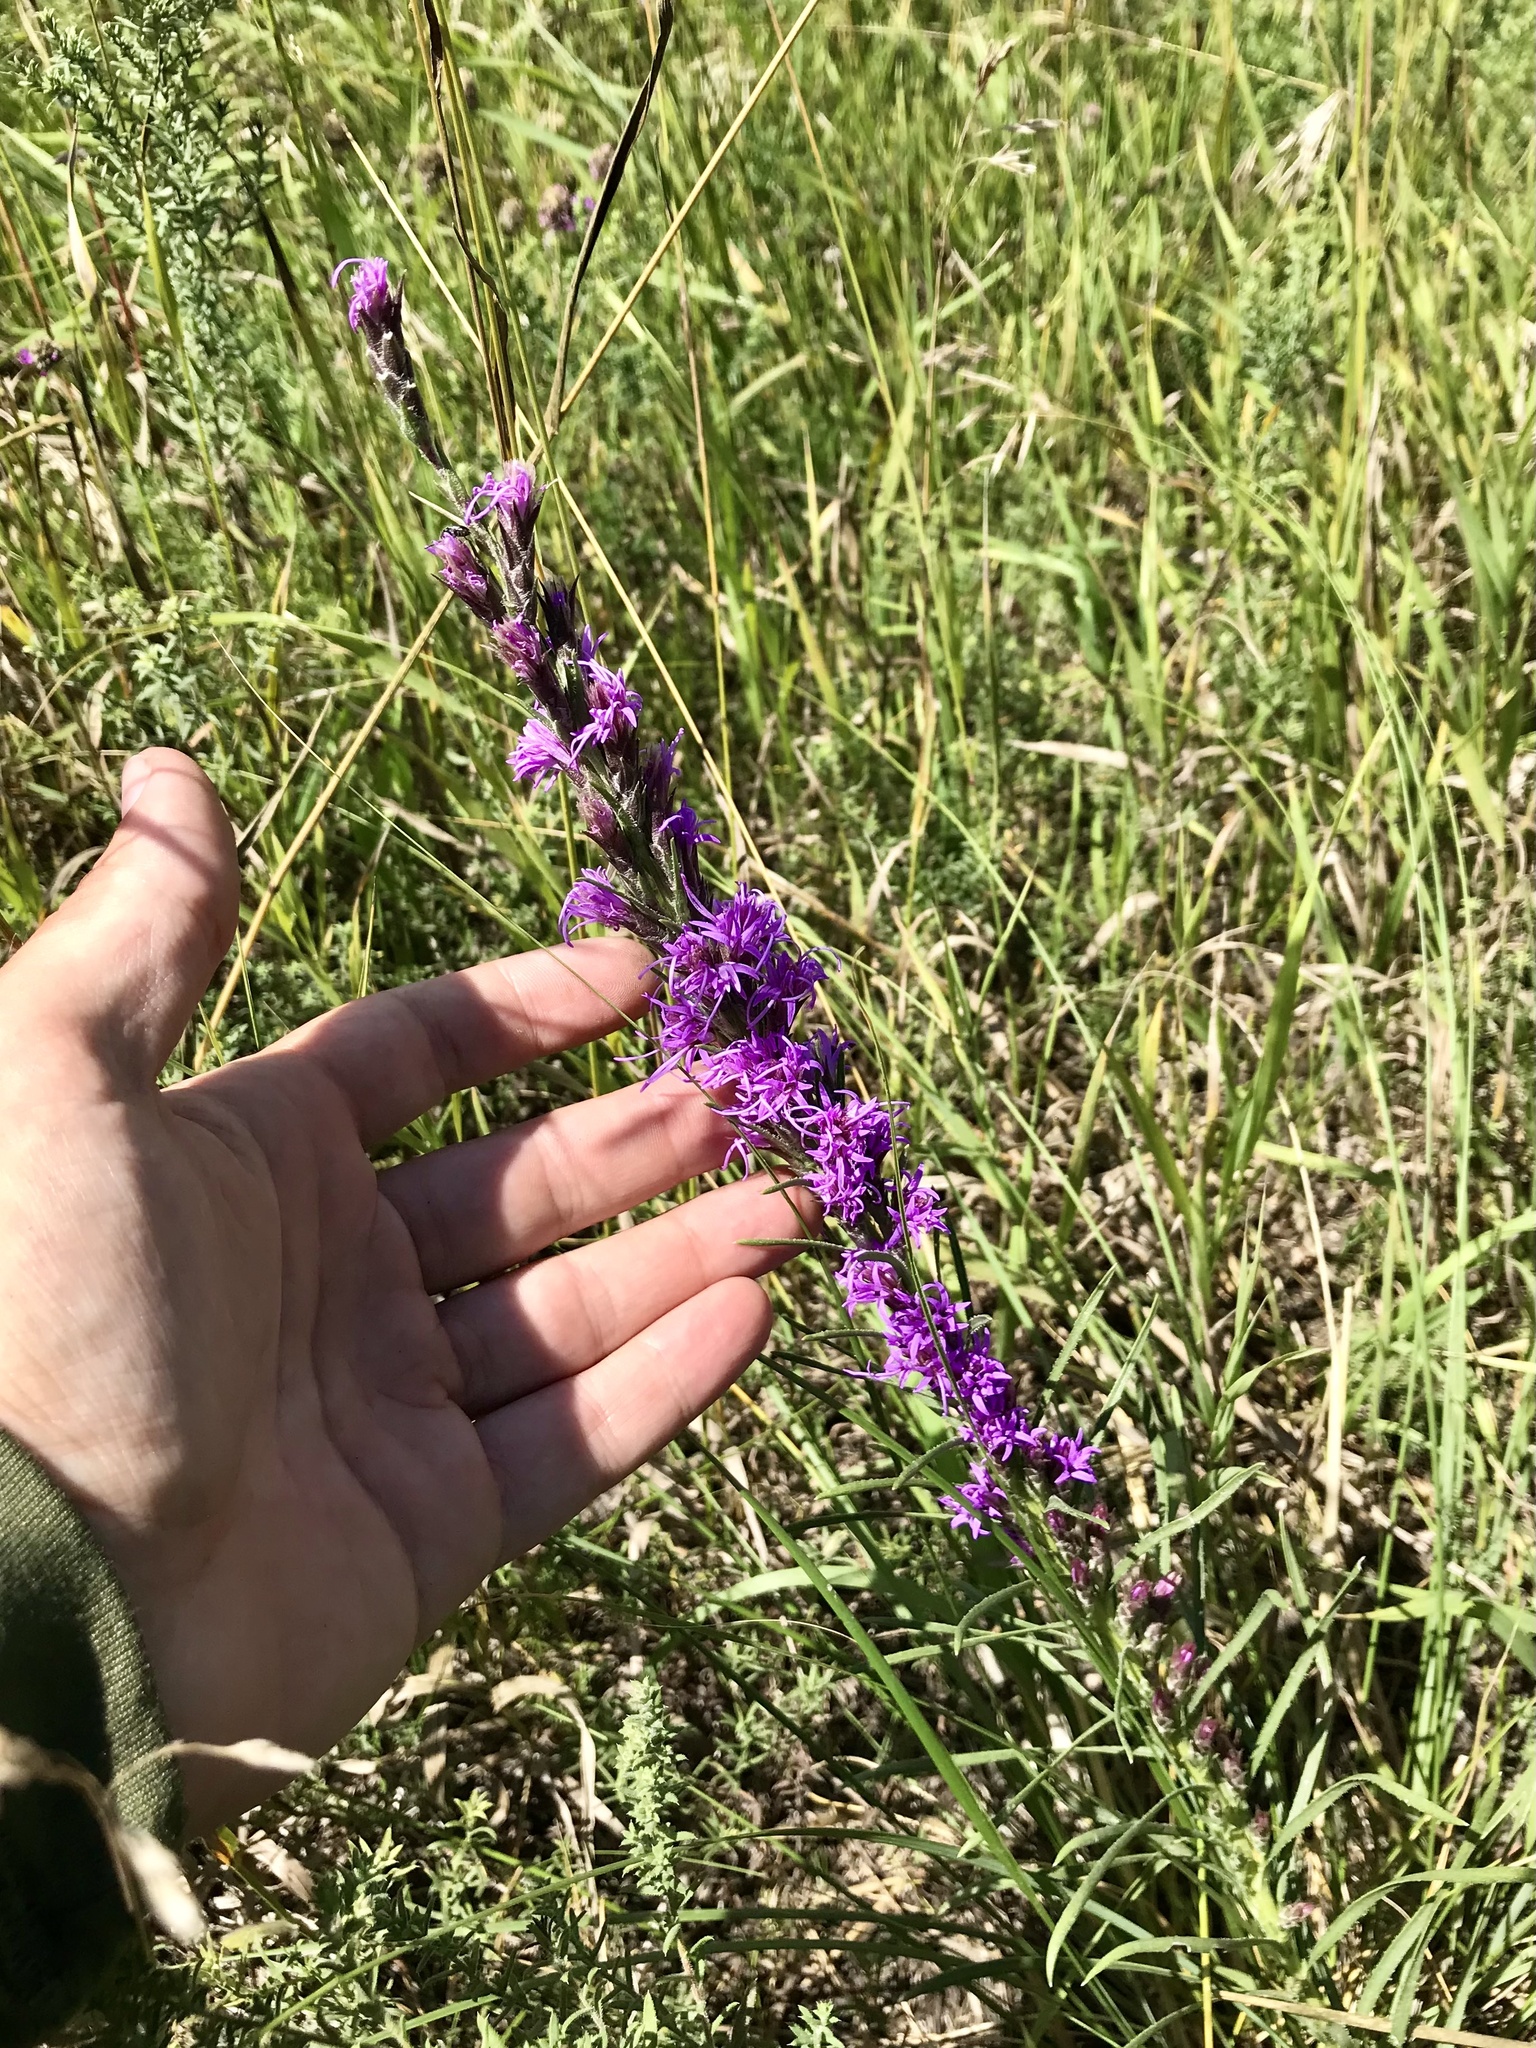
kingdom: Plantae
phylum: Tracheophyta
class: Magnoliopsida
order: Asterales
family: Asteraceae
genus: Liatris
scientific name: Liatris punctata
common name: Dotted gayfeather
